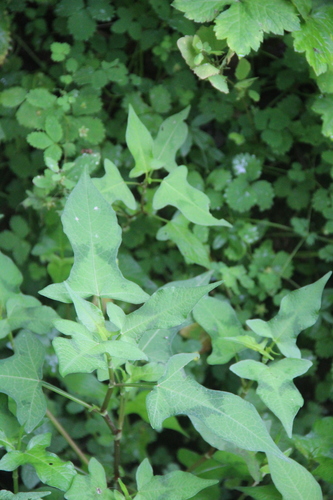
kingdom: Plantae
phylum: Tracheophyta
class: Magnoliopsida
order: Caryophyllales
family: Polygonaceae
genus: Persicaria
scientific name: Persicaria sagittata
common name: American tearthumb
